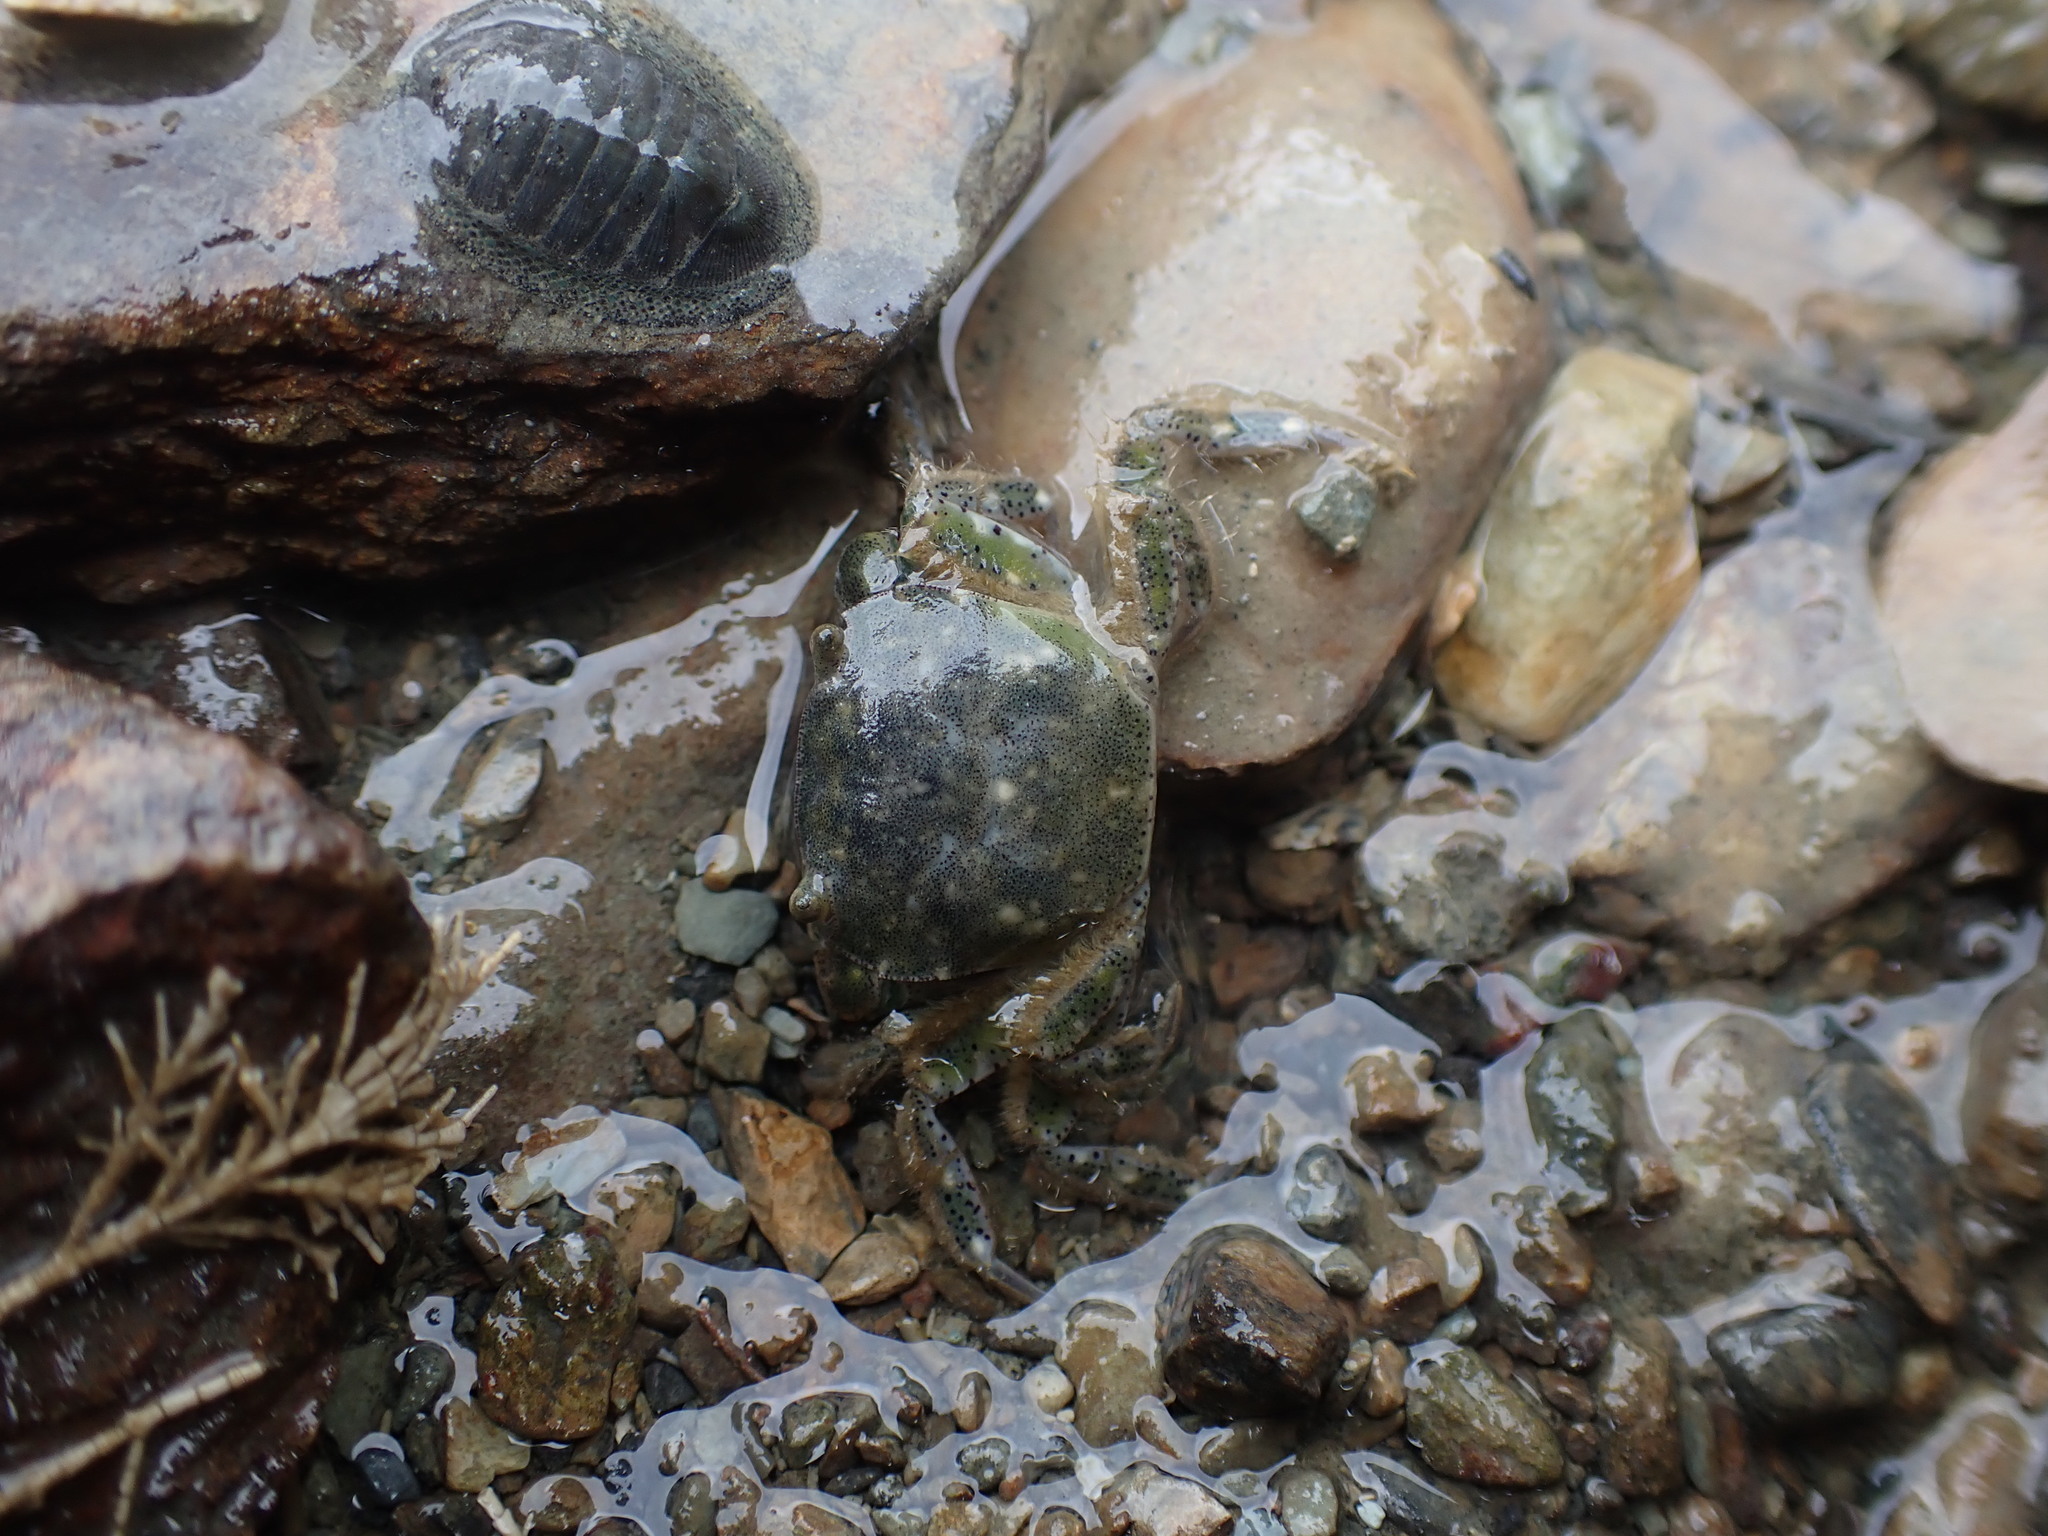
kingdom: Animalia
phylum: Arthropoda
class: Malacostraca
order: Decapoda
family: Varunidae
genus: Hemigrapsus
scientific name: Hemigrapsus crenulatus
